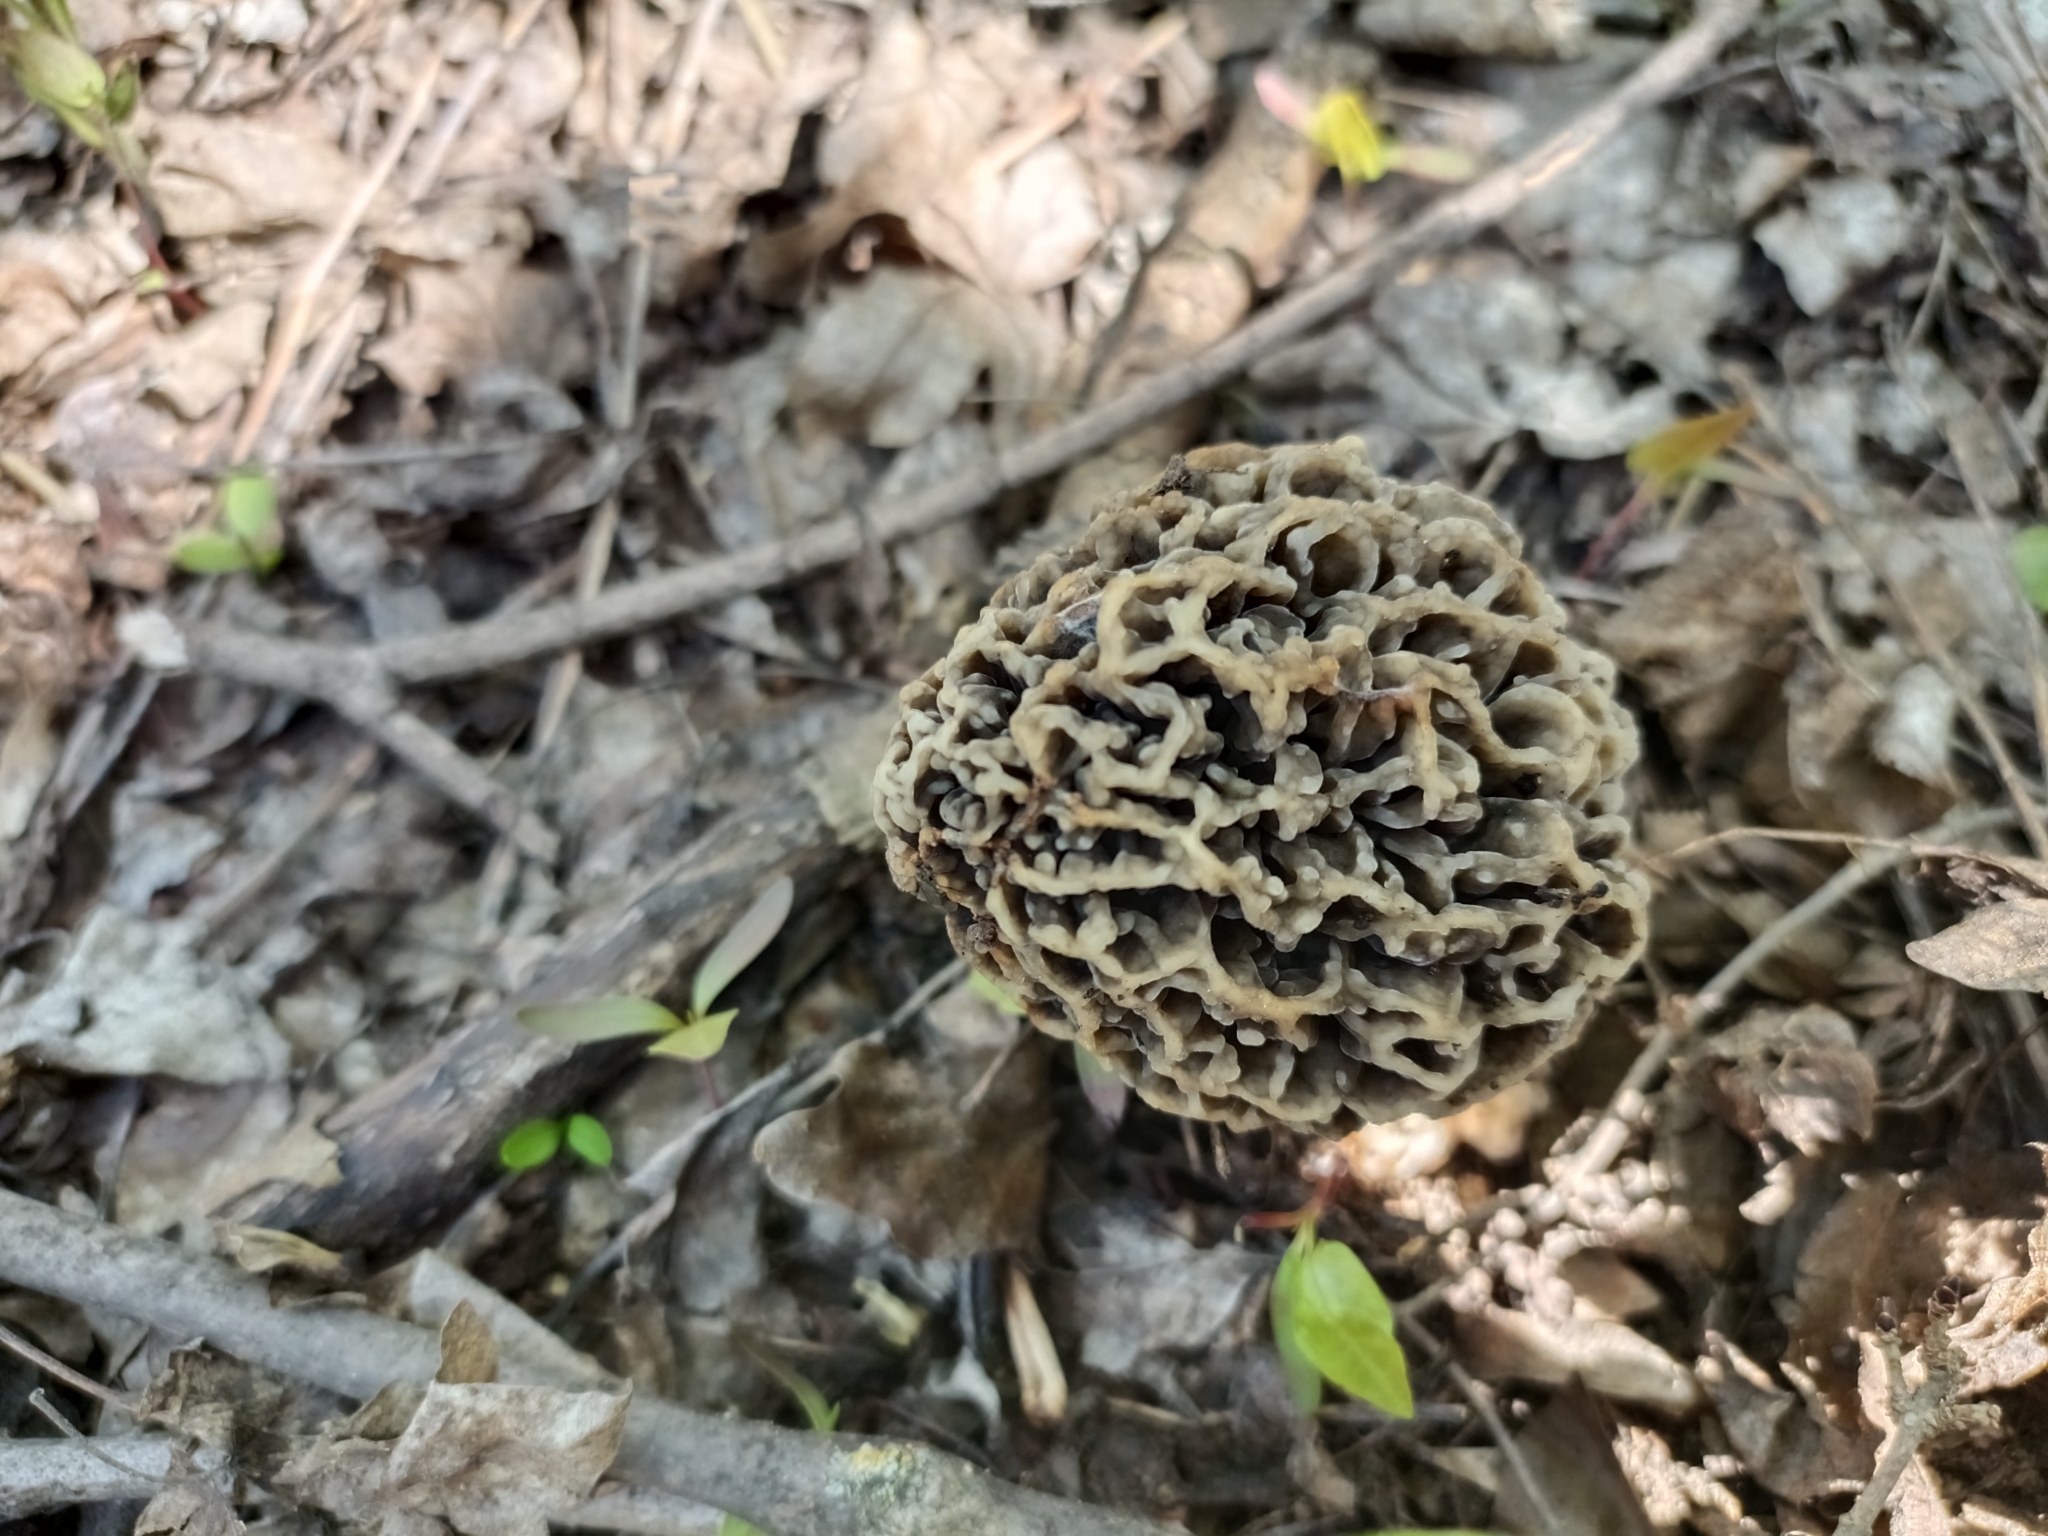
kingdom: Fungi
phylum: Ascomycota
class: Pezizomycetes
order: Pezizales
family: Morchellaceae
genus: Morchella
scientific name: Morchella vulgaris
